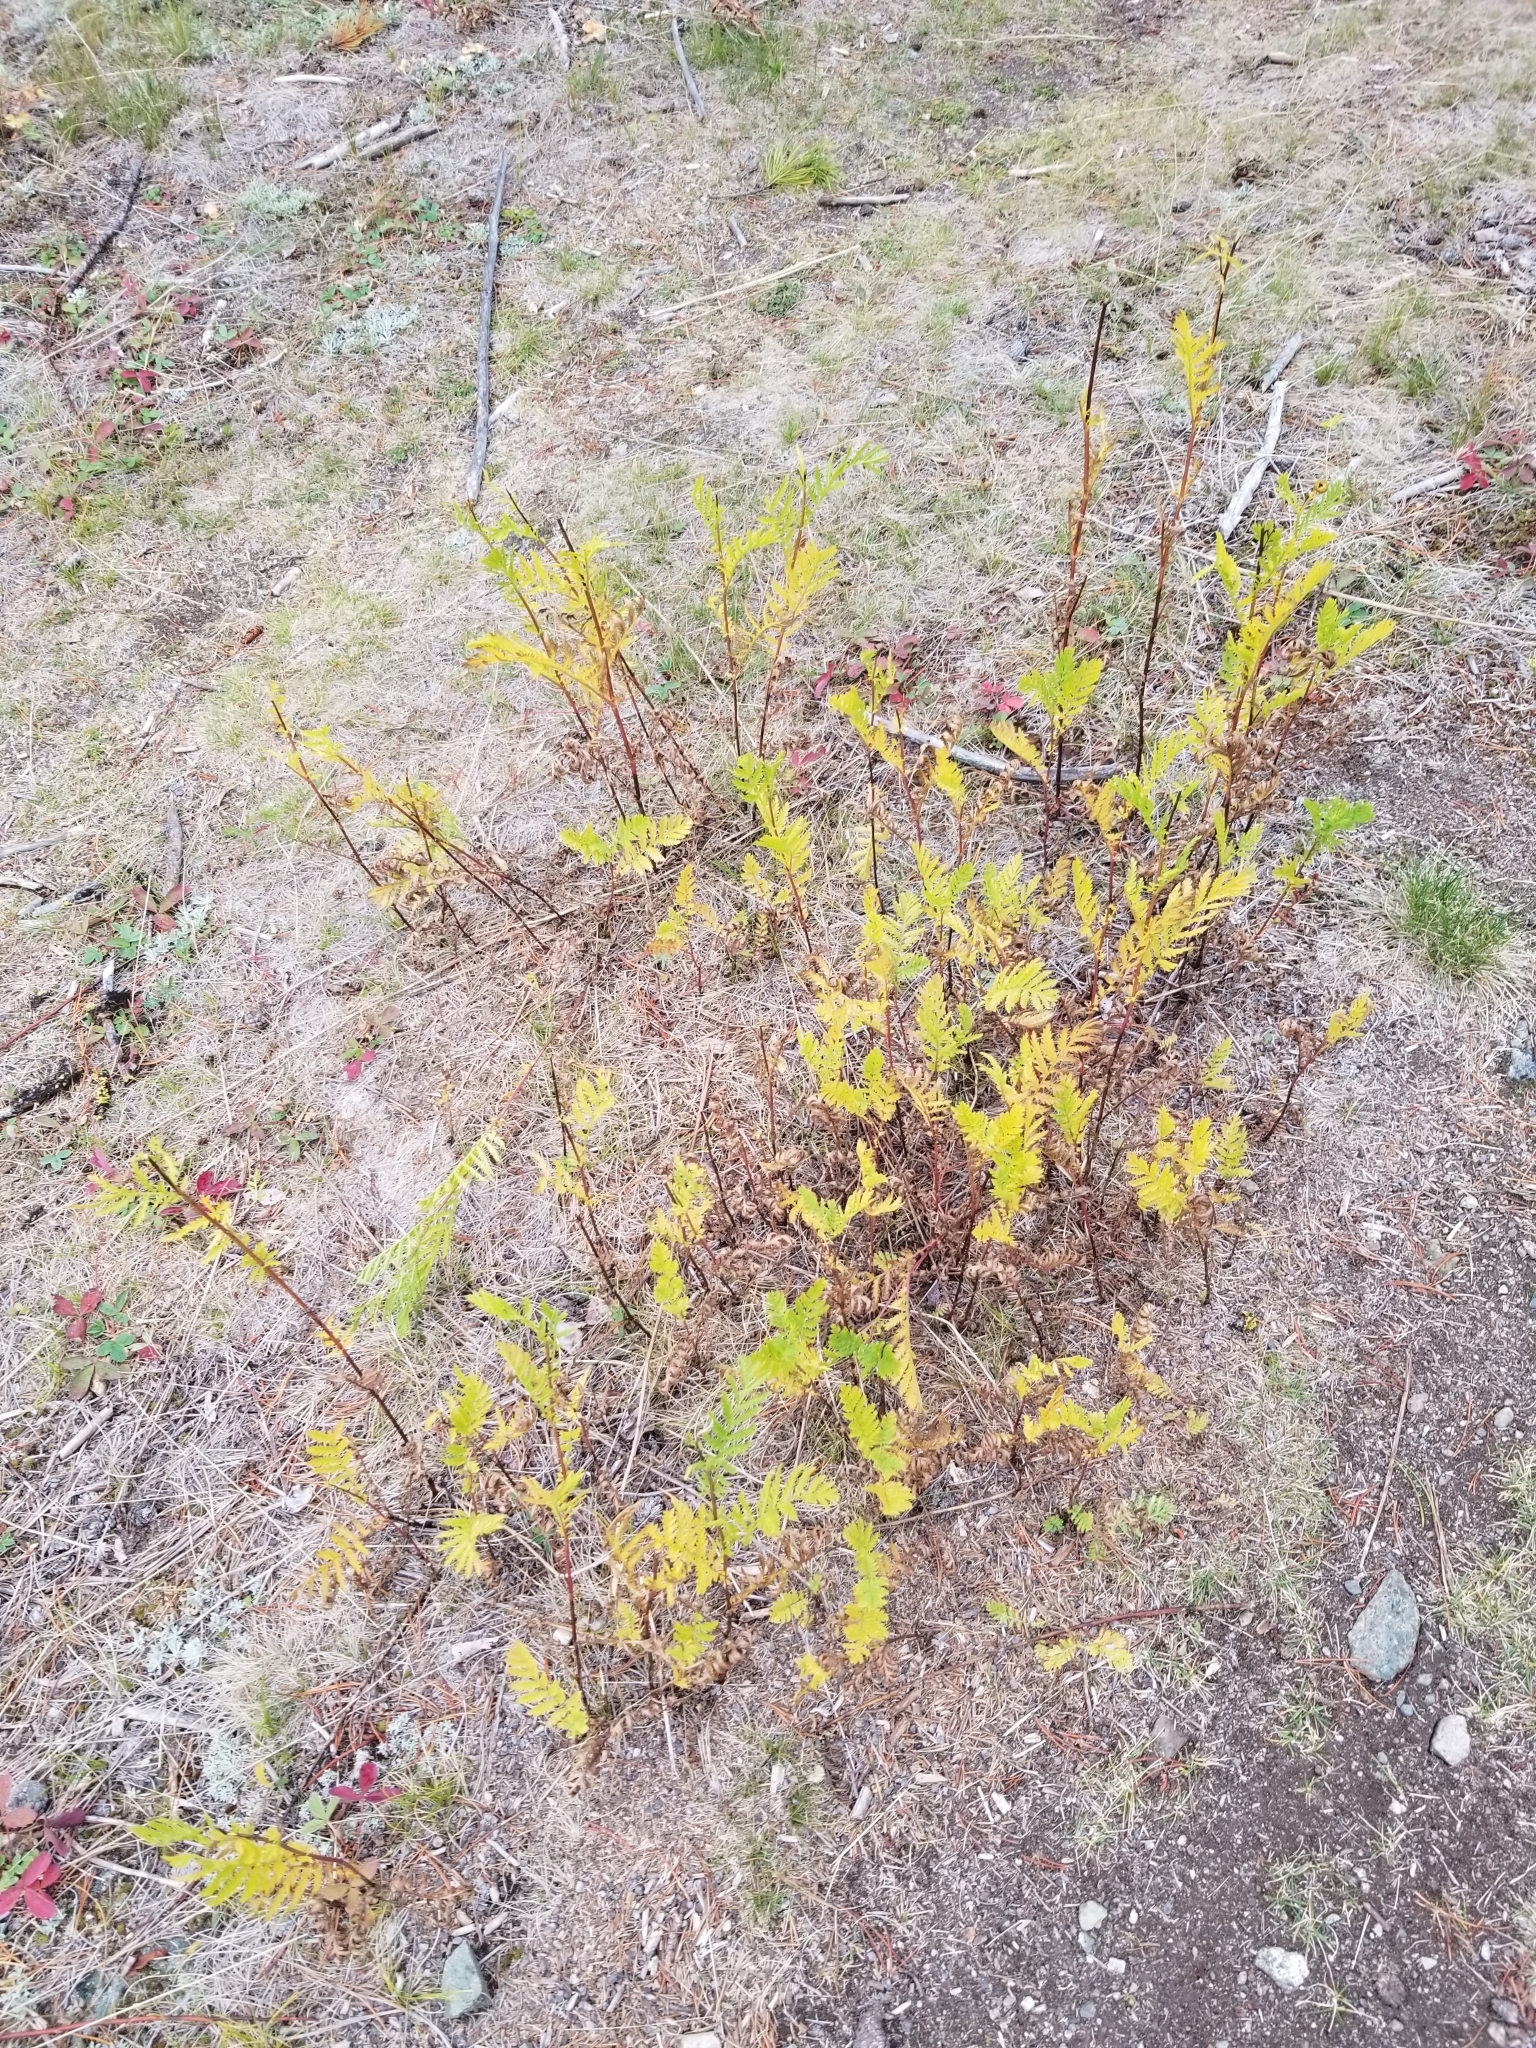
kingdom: Plantae
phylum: Tracheophyta
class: Magnoliopsida
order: Asterales
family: Asteraceae
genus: Tanacetum
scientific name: Tanacetum vulgare
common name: Common tansy
